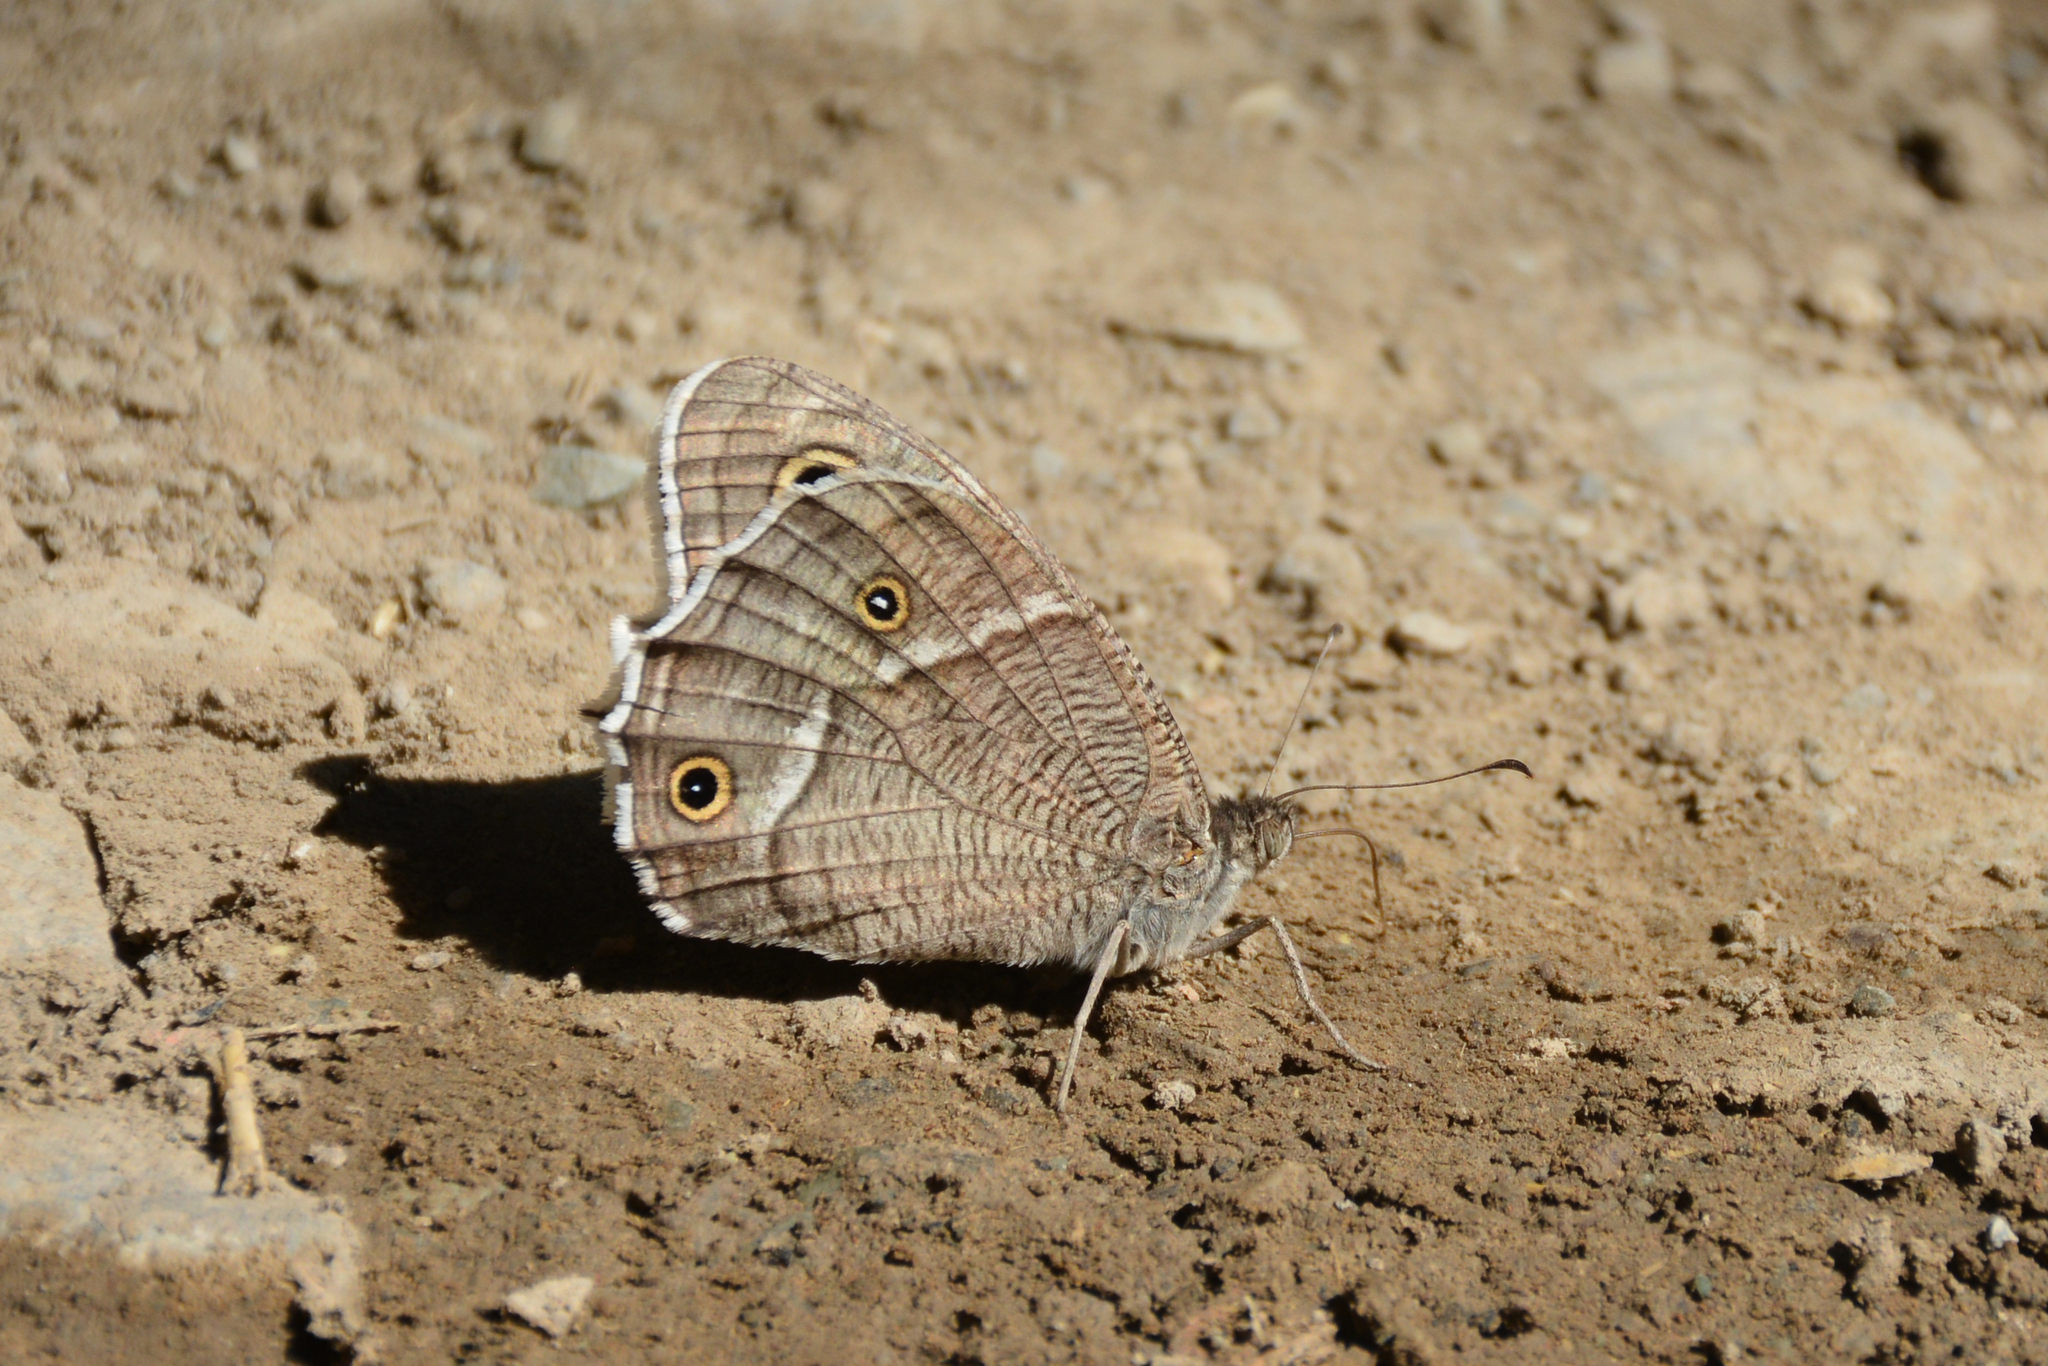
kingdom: Animalia
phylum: Arthropoda
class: Insecta
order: Lepidoptera
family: Nymphalidae
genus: Hipparchia
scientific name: Hipparchia parisatis
